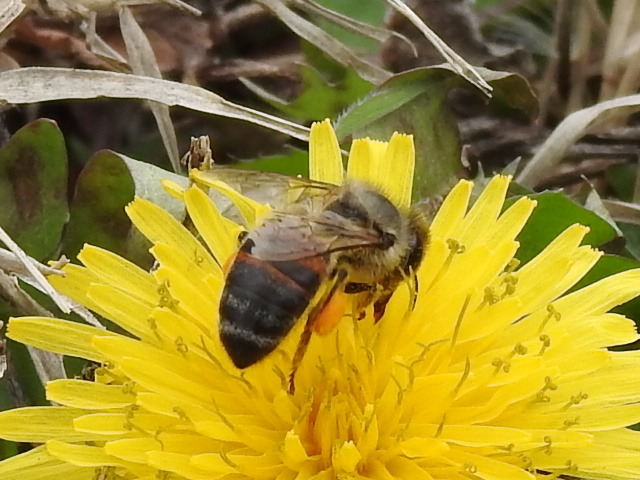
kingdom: Animalia
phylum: Arthropoda
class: Insecta
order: Hymenoptera
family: Apidae
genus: Apis
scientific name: Apis mellifera
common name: Honey bee
